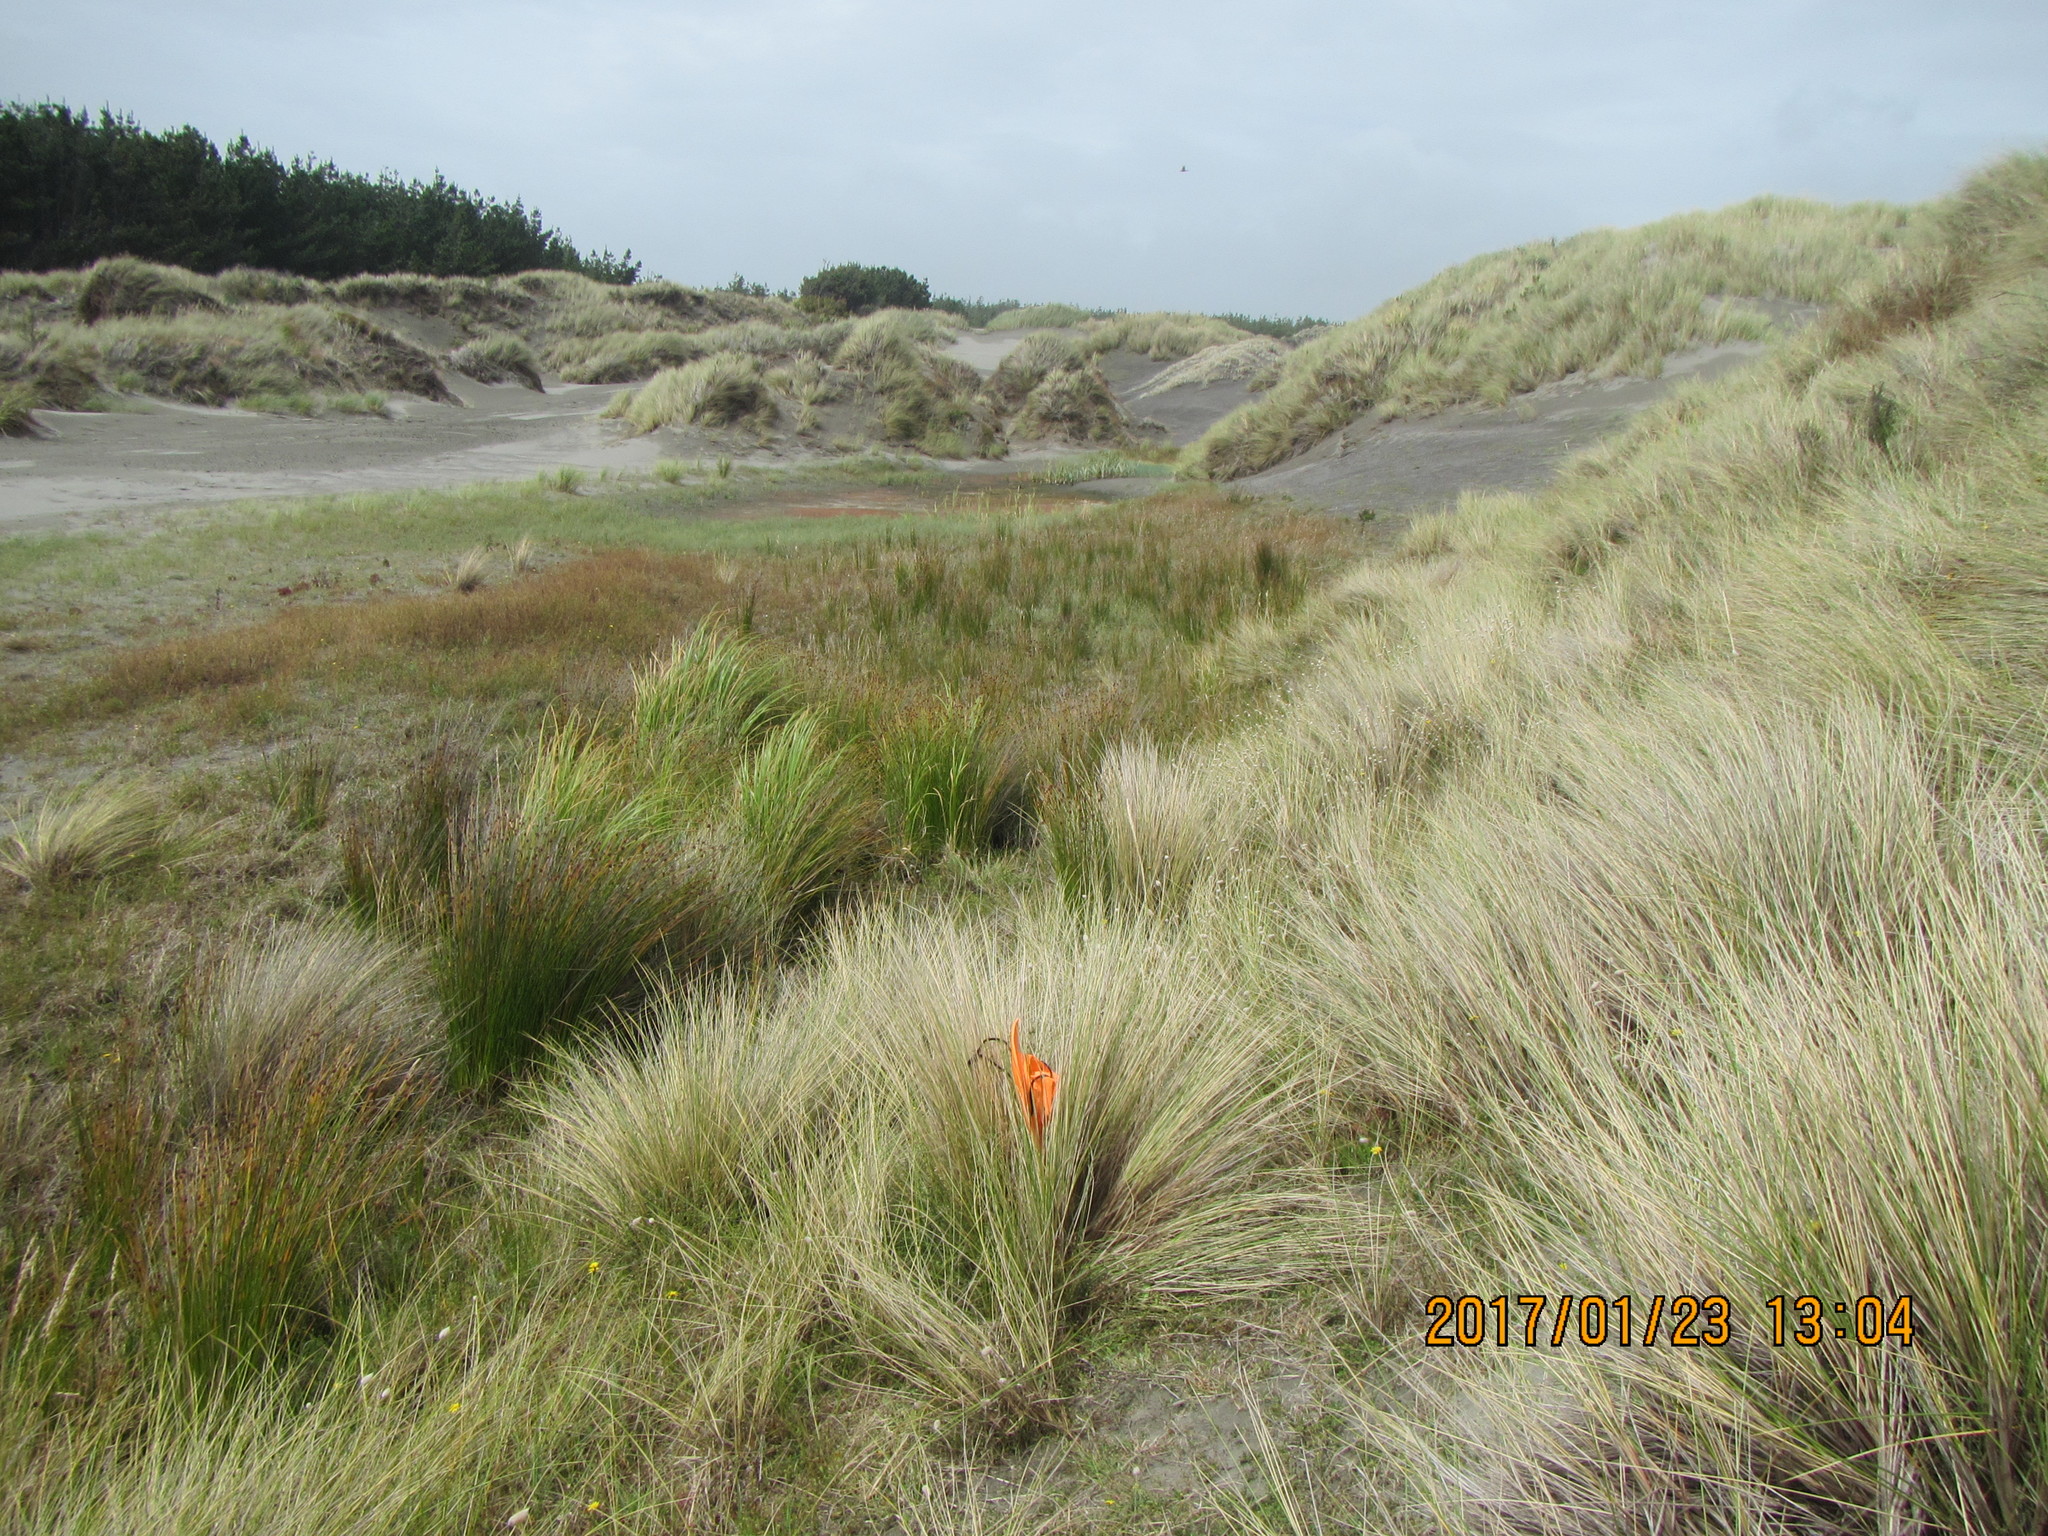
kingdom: Animalia
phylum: Arthropoda
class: Arachnida
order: Araneae
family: Pisauridae
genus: Dolomedes
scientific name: Dolomedes minor
